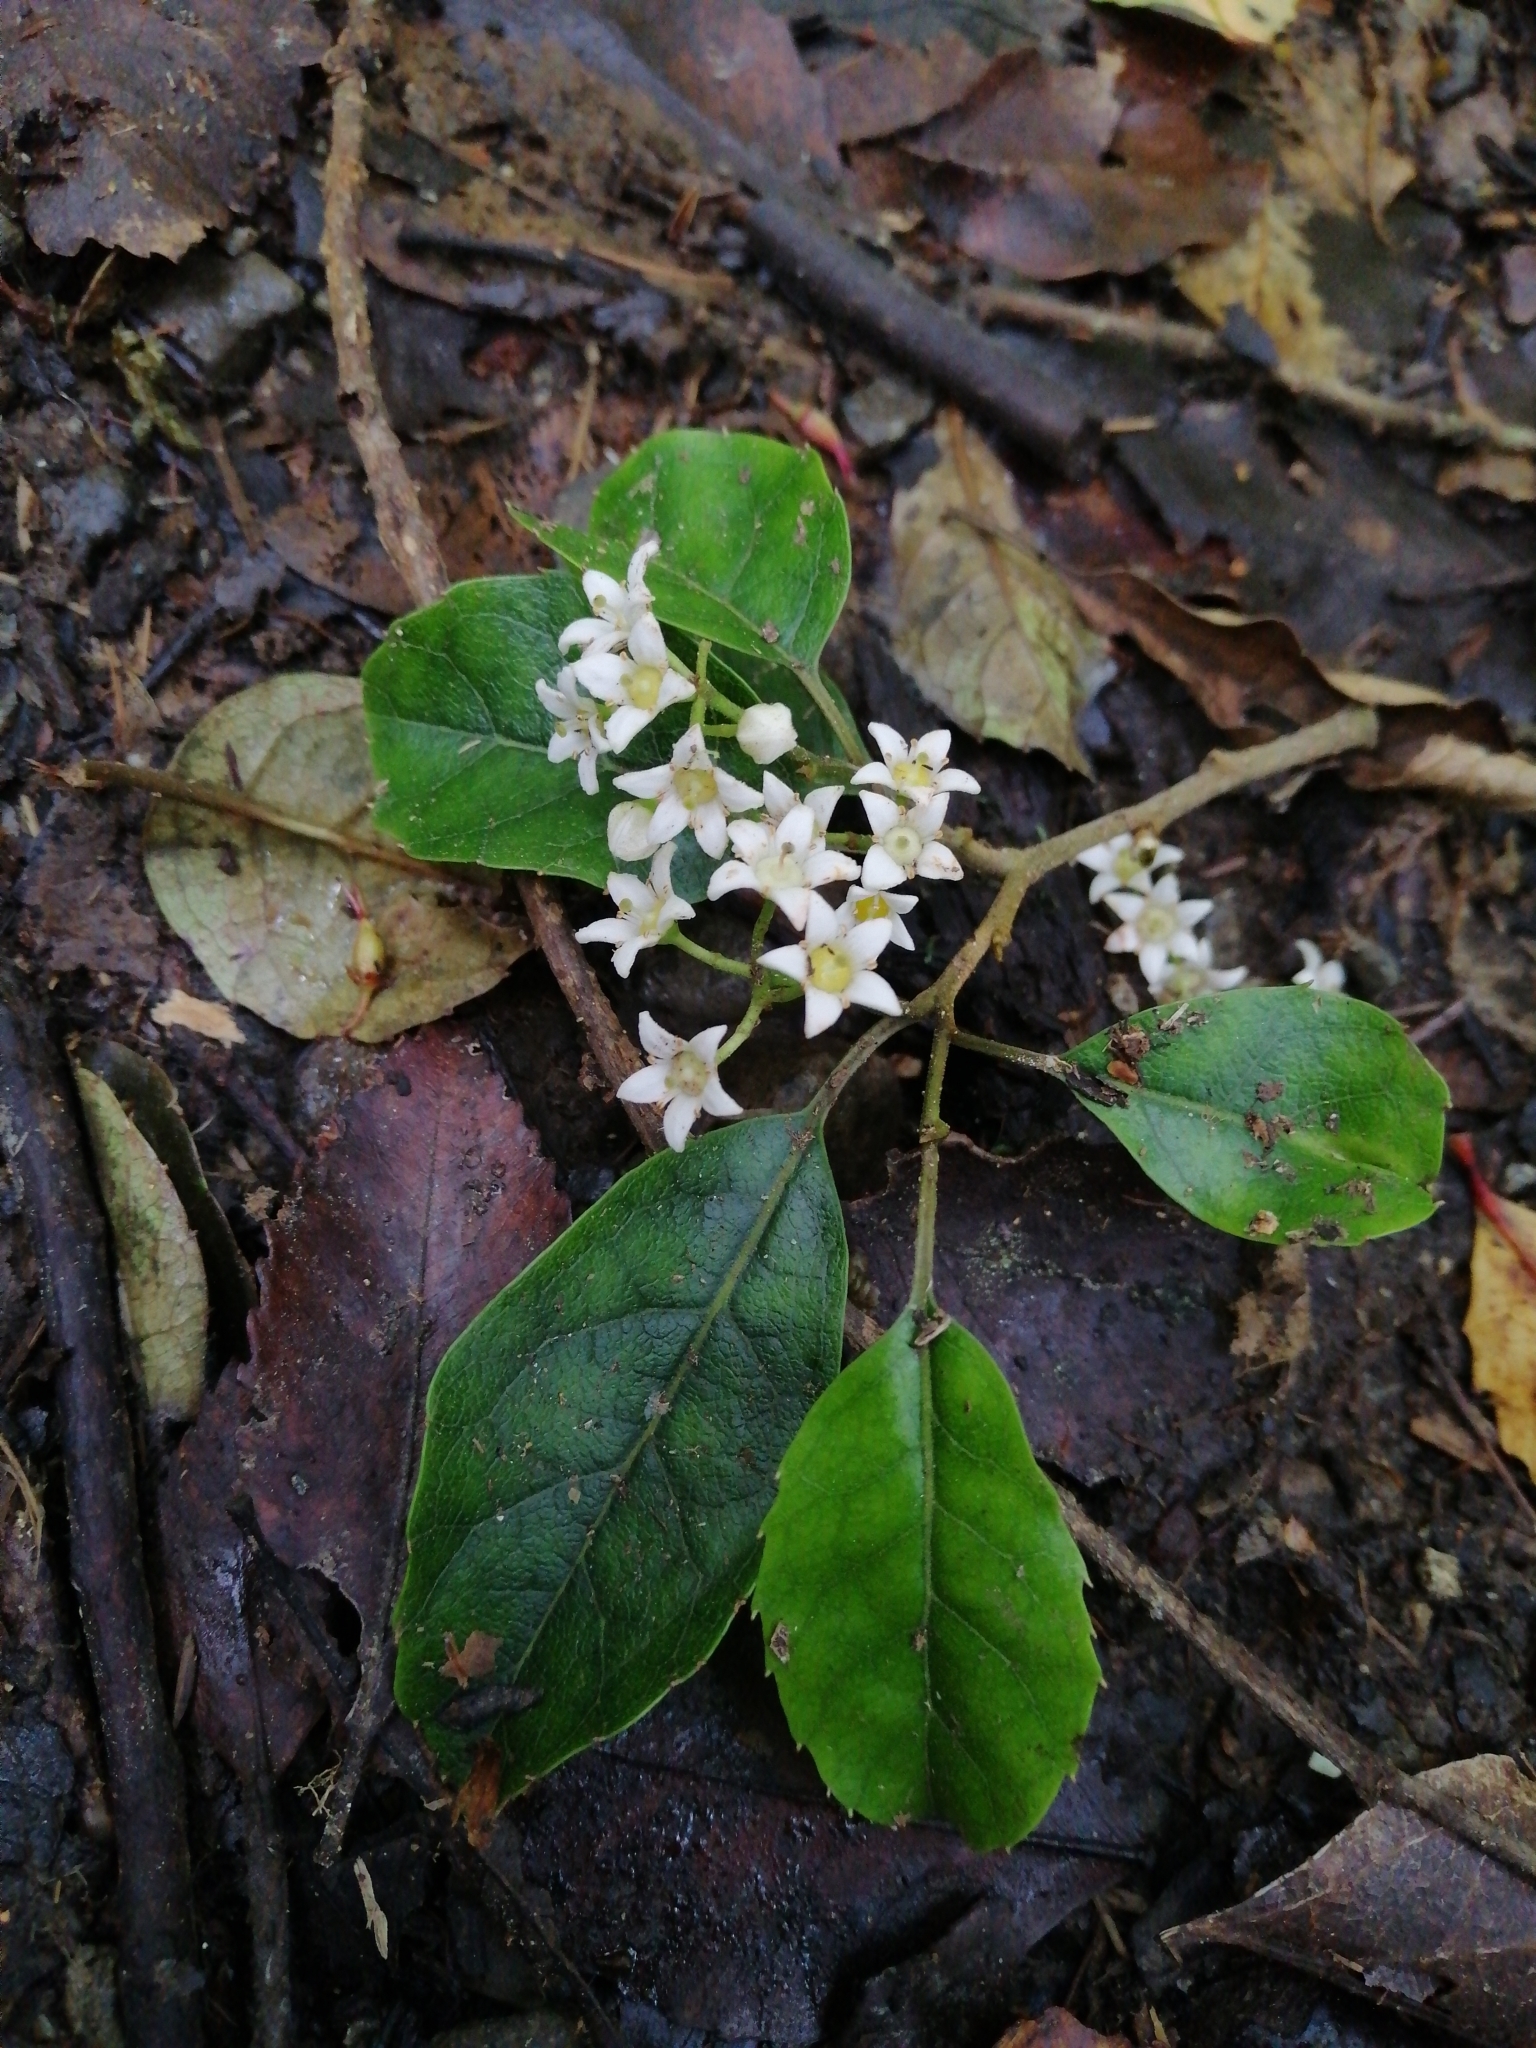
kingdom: Plantae
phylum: Tracheophyta
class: Magnoliopsida
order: Asterales
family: Rousseaceae
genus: Carpodetus
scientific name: Carpodetus serratus
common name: White mapau
